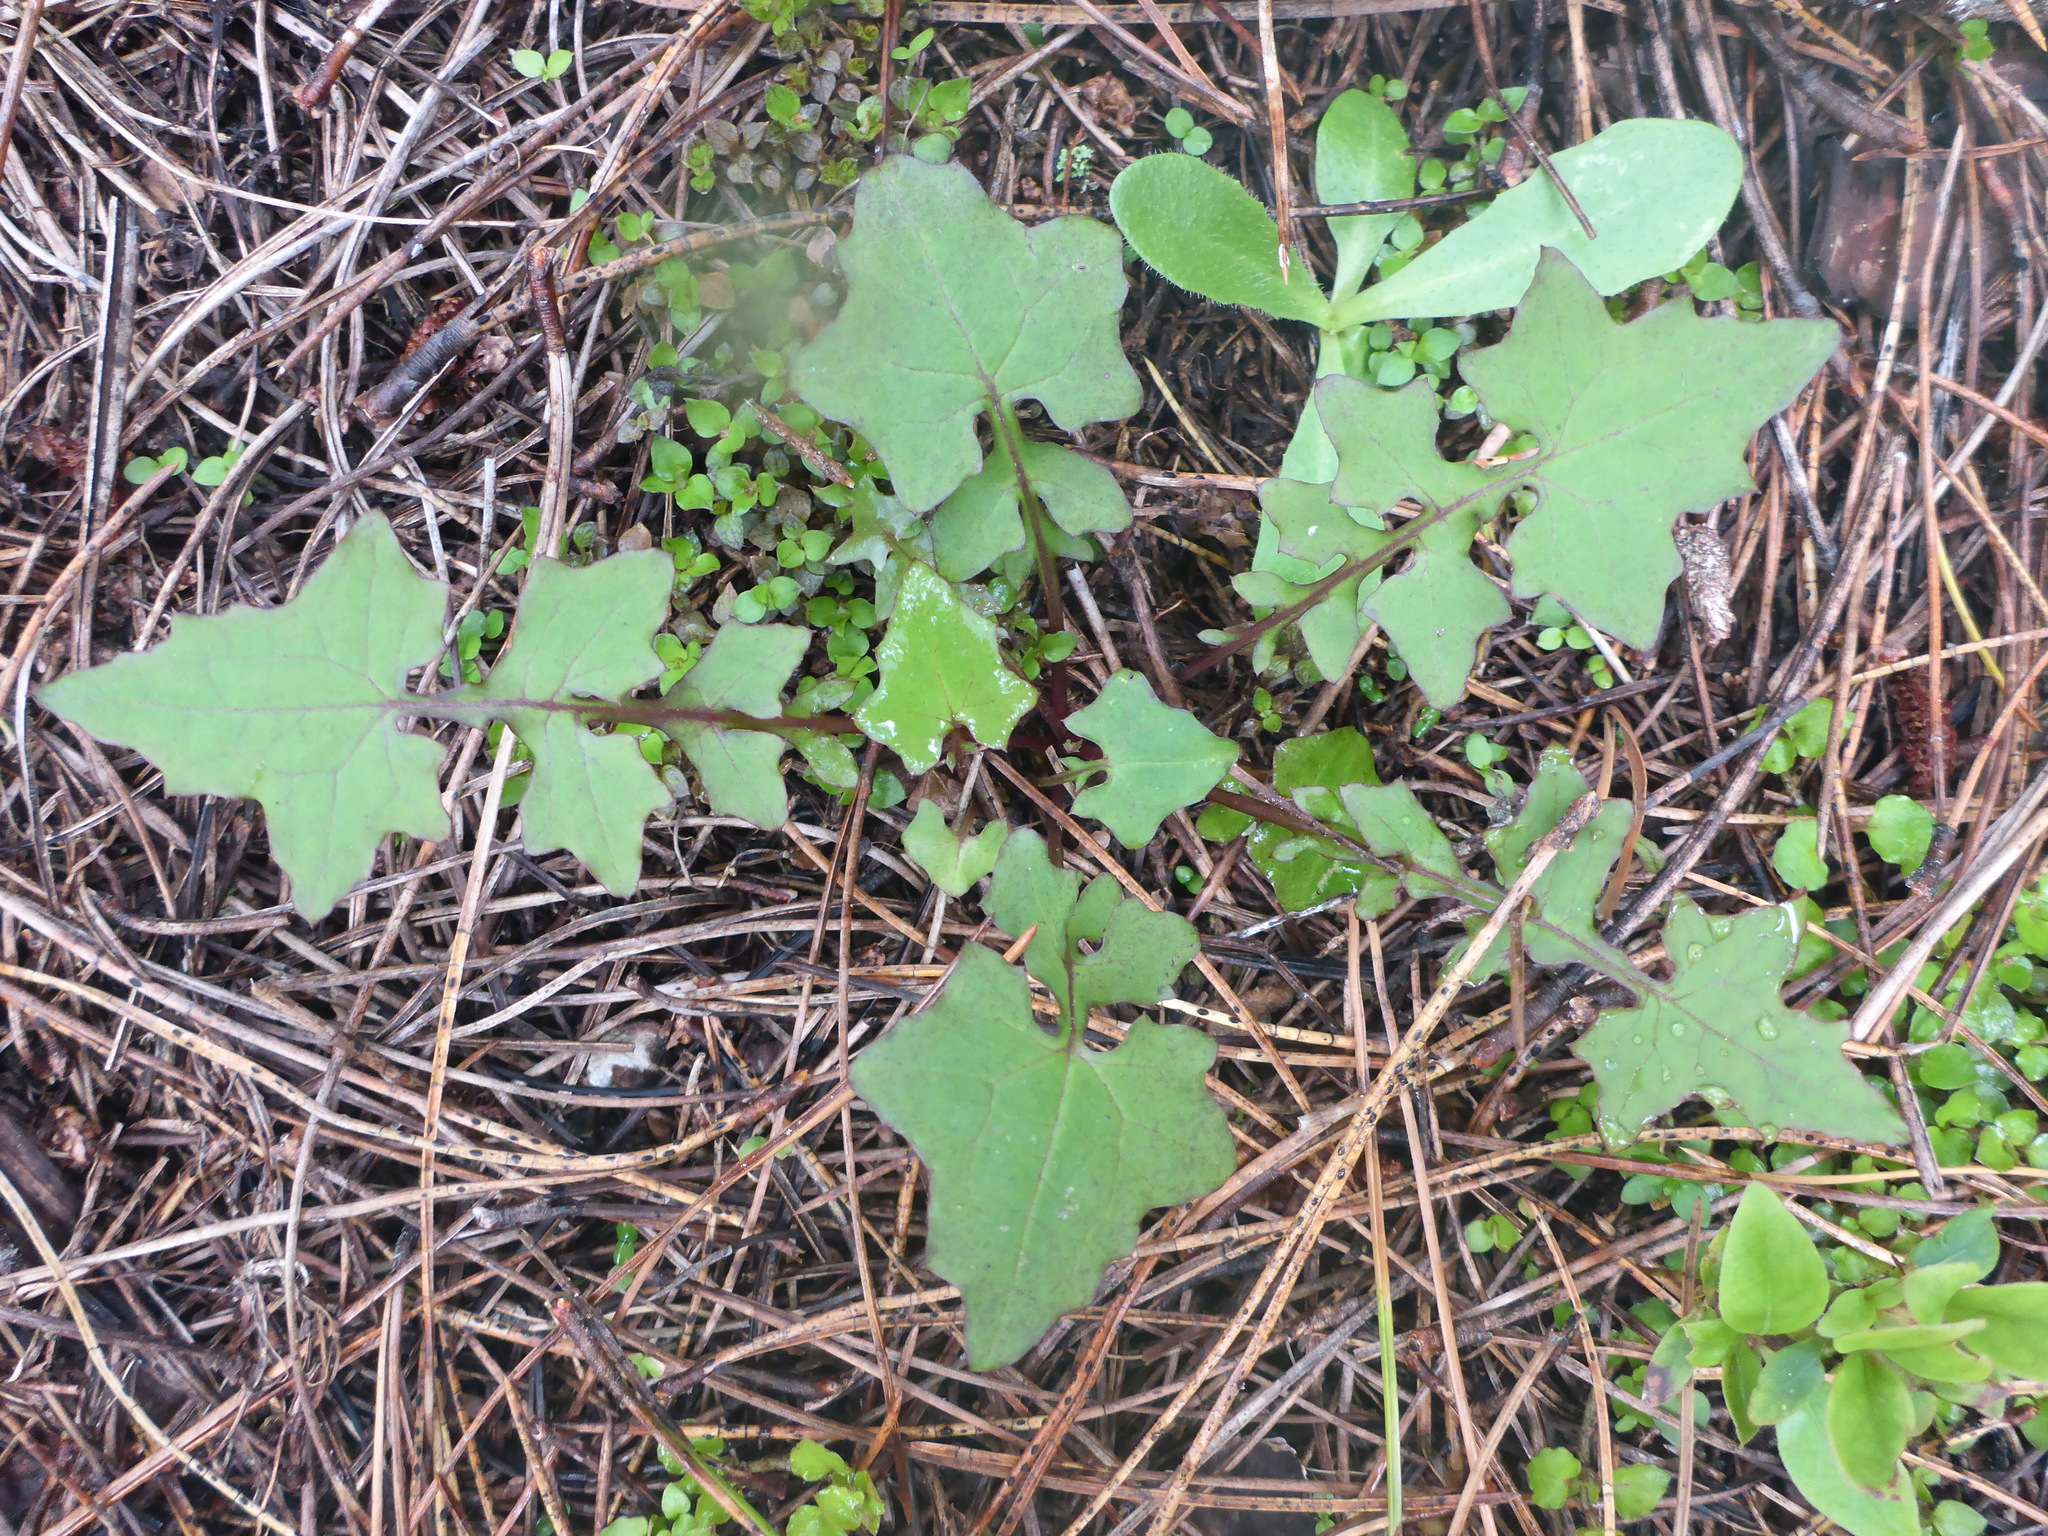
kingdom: Plantae
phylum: Tracheophyta
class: Magnoliopsida
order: Asterales
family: Asteraceae
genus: Mycelis
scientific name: Mycelis muralis
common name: Wall lettuce
